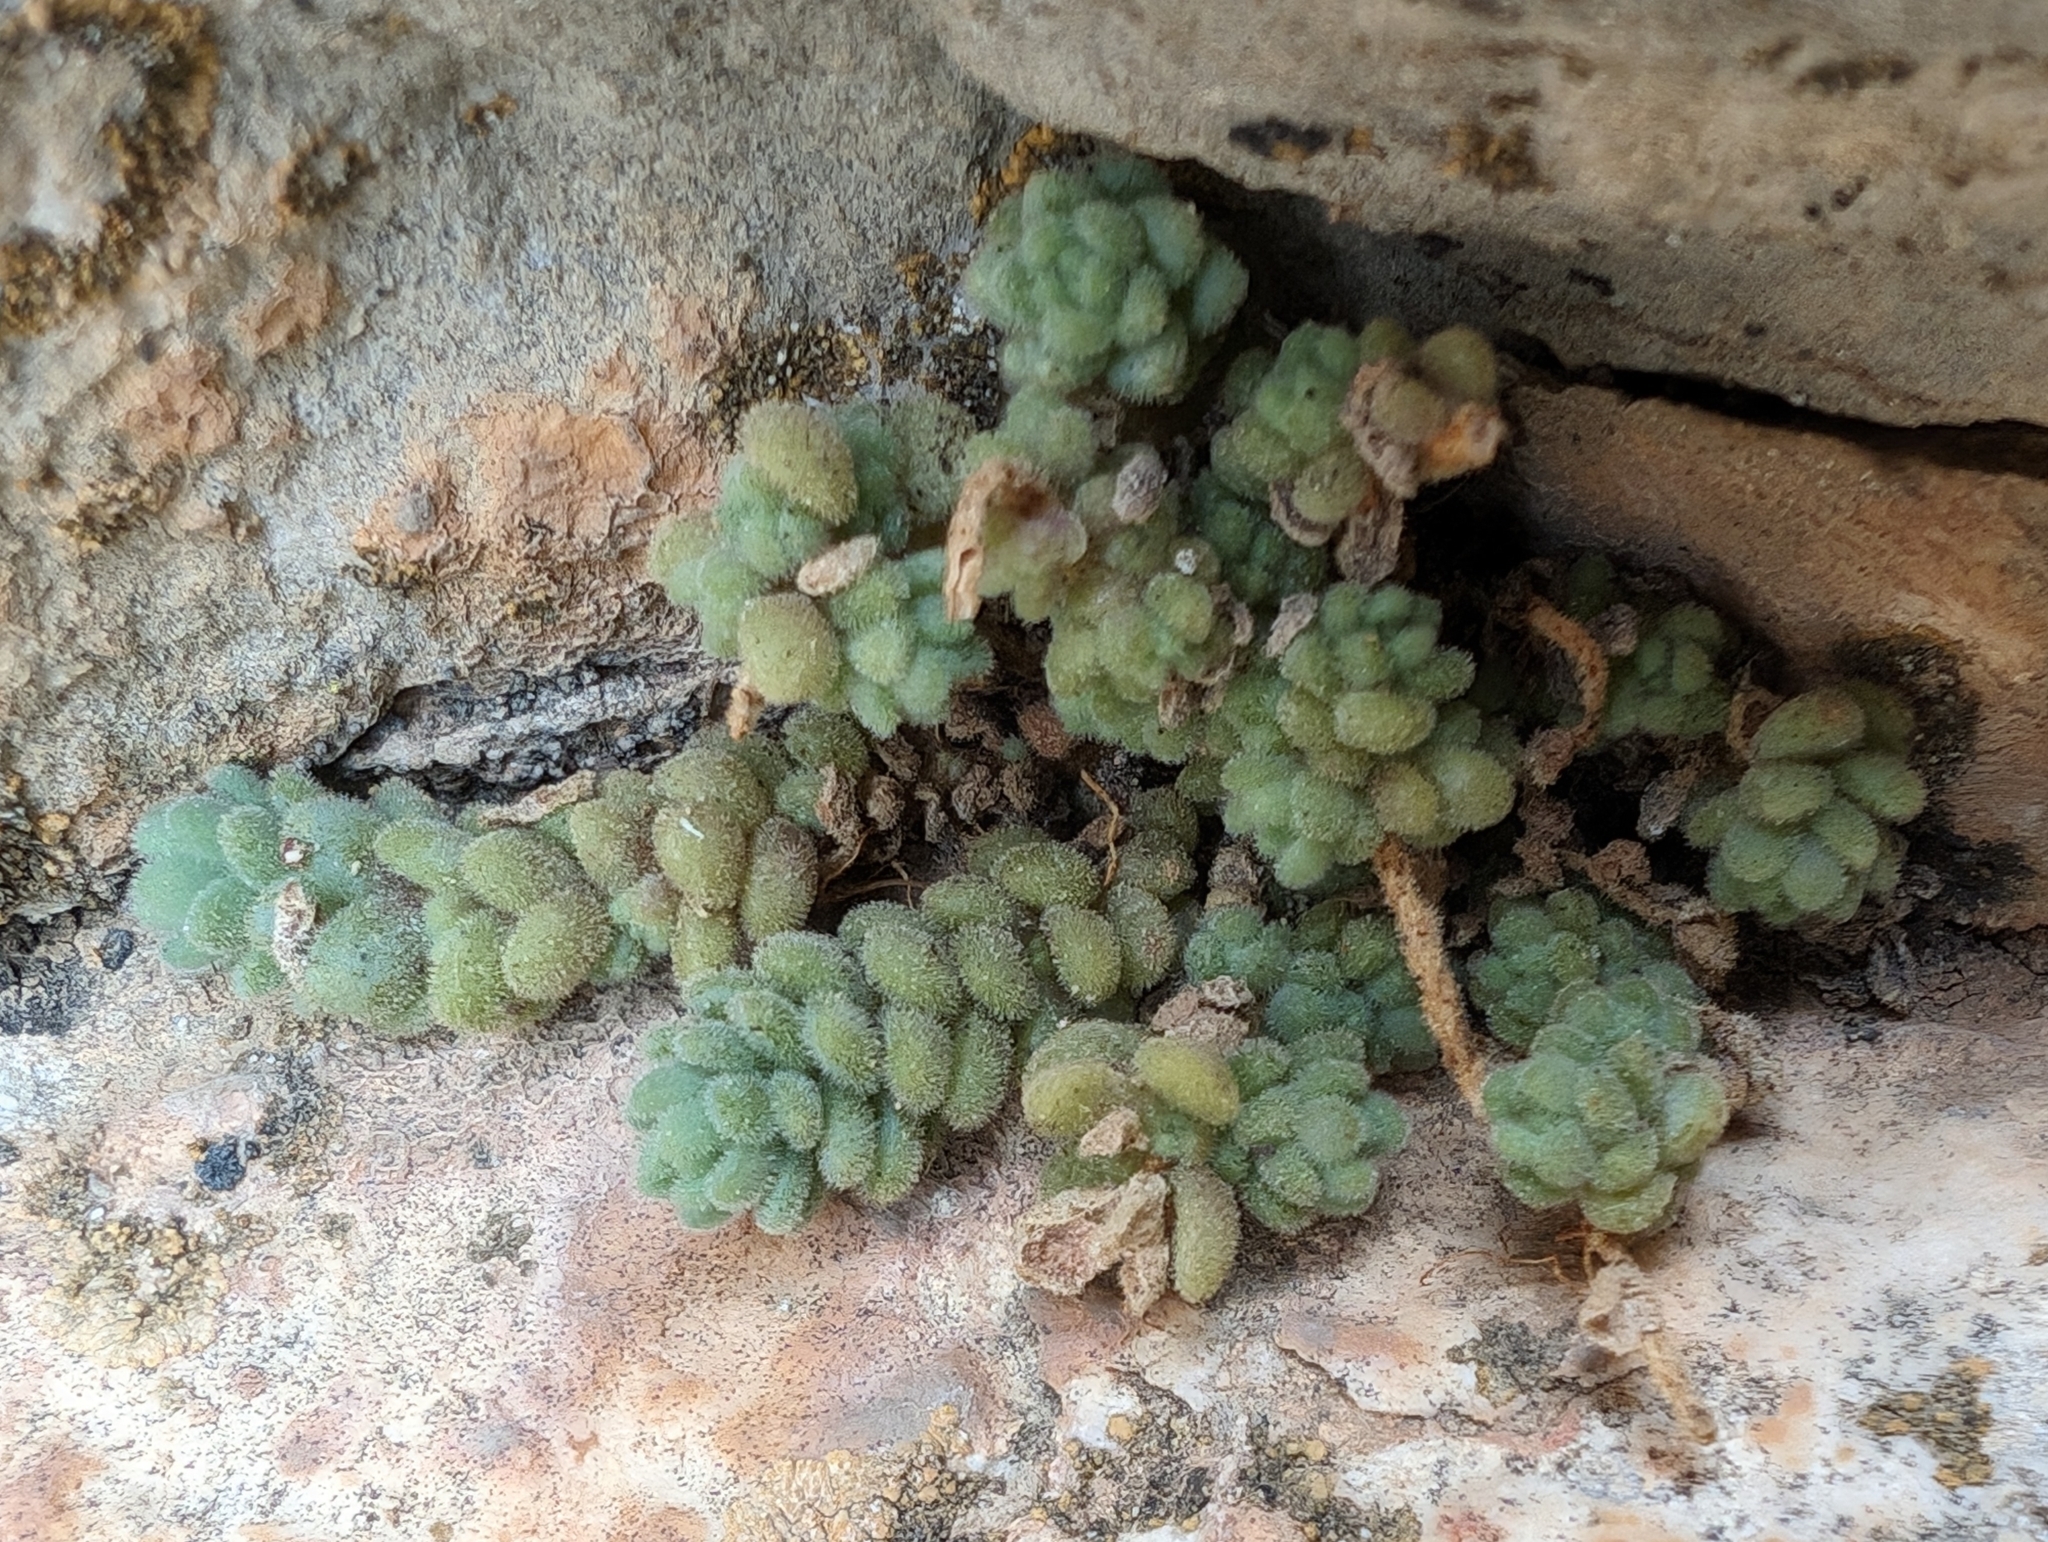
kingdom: Plantae
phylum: Tracheophyta
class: Magnoliopsida
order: Saxifragales
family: Crassulaceae
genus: Sedum
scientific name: Sedum dasyphyllum
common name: Thick-leaf stonecrop
